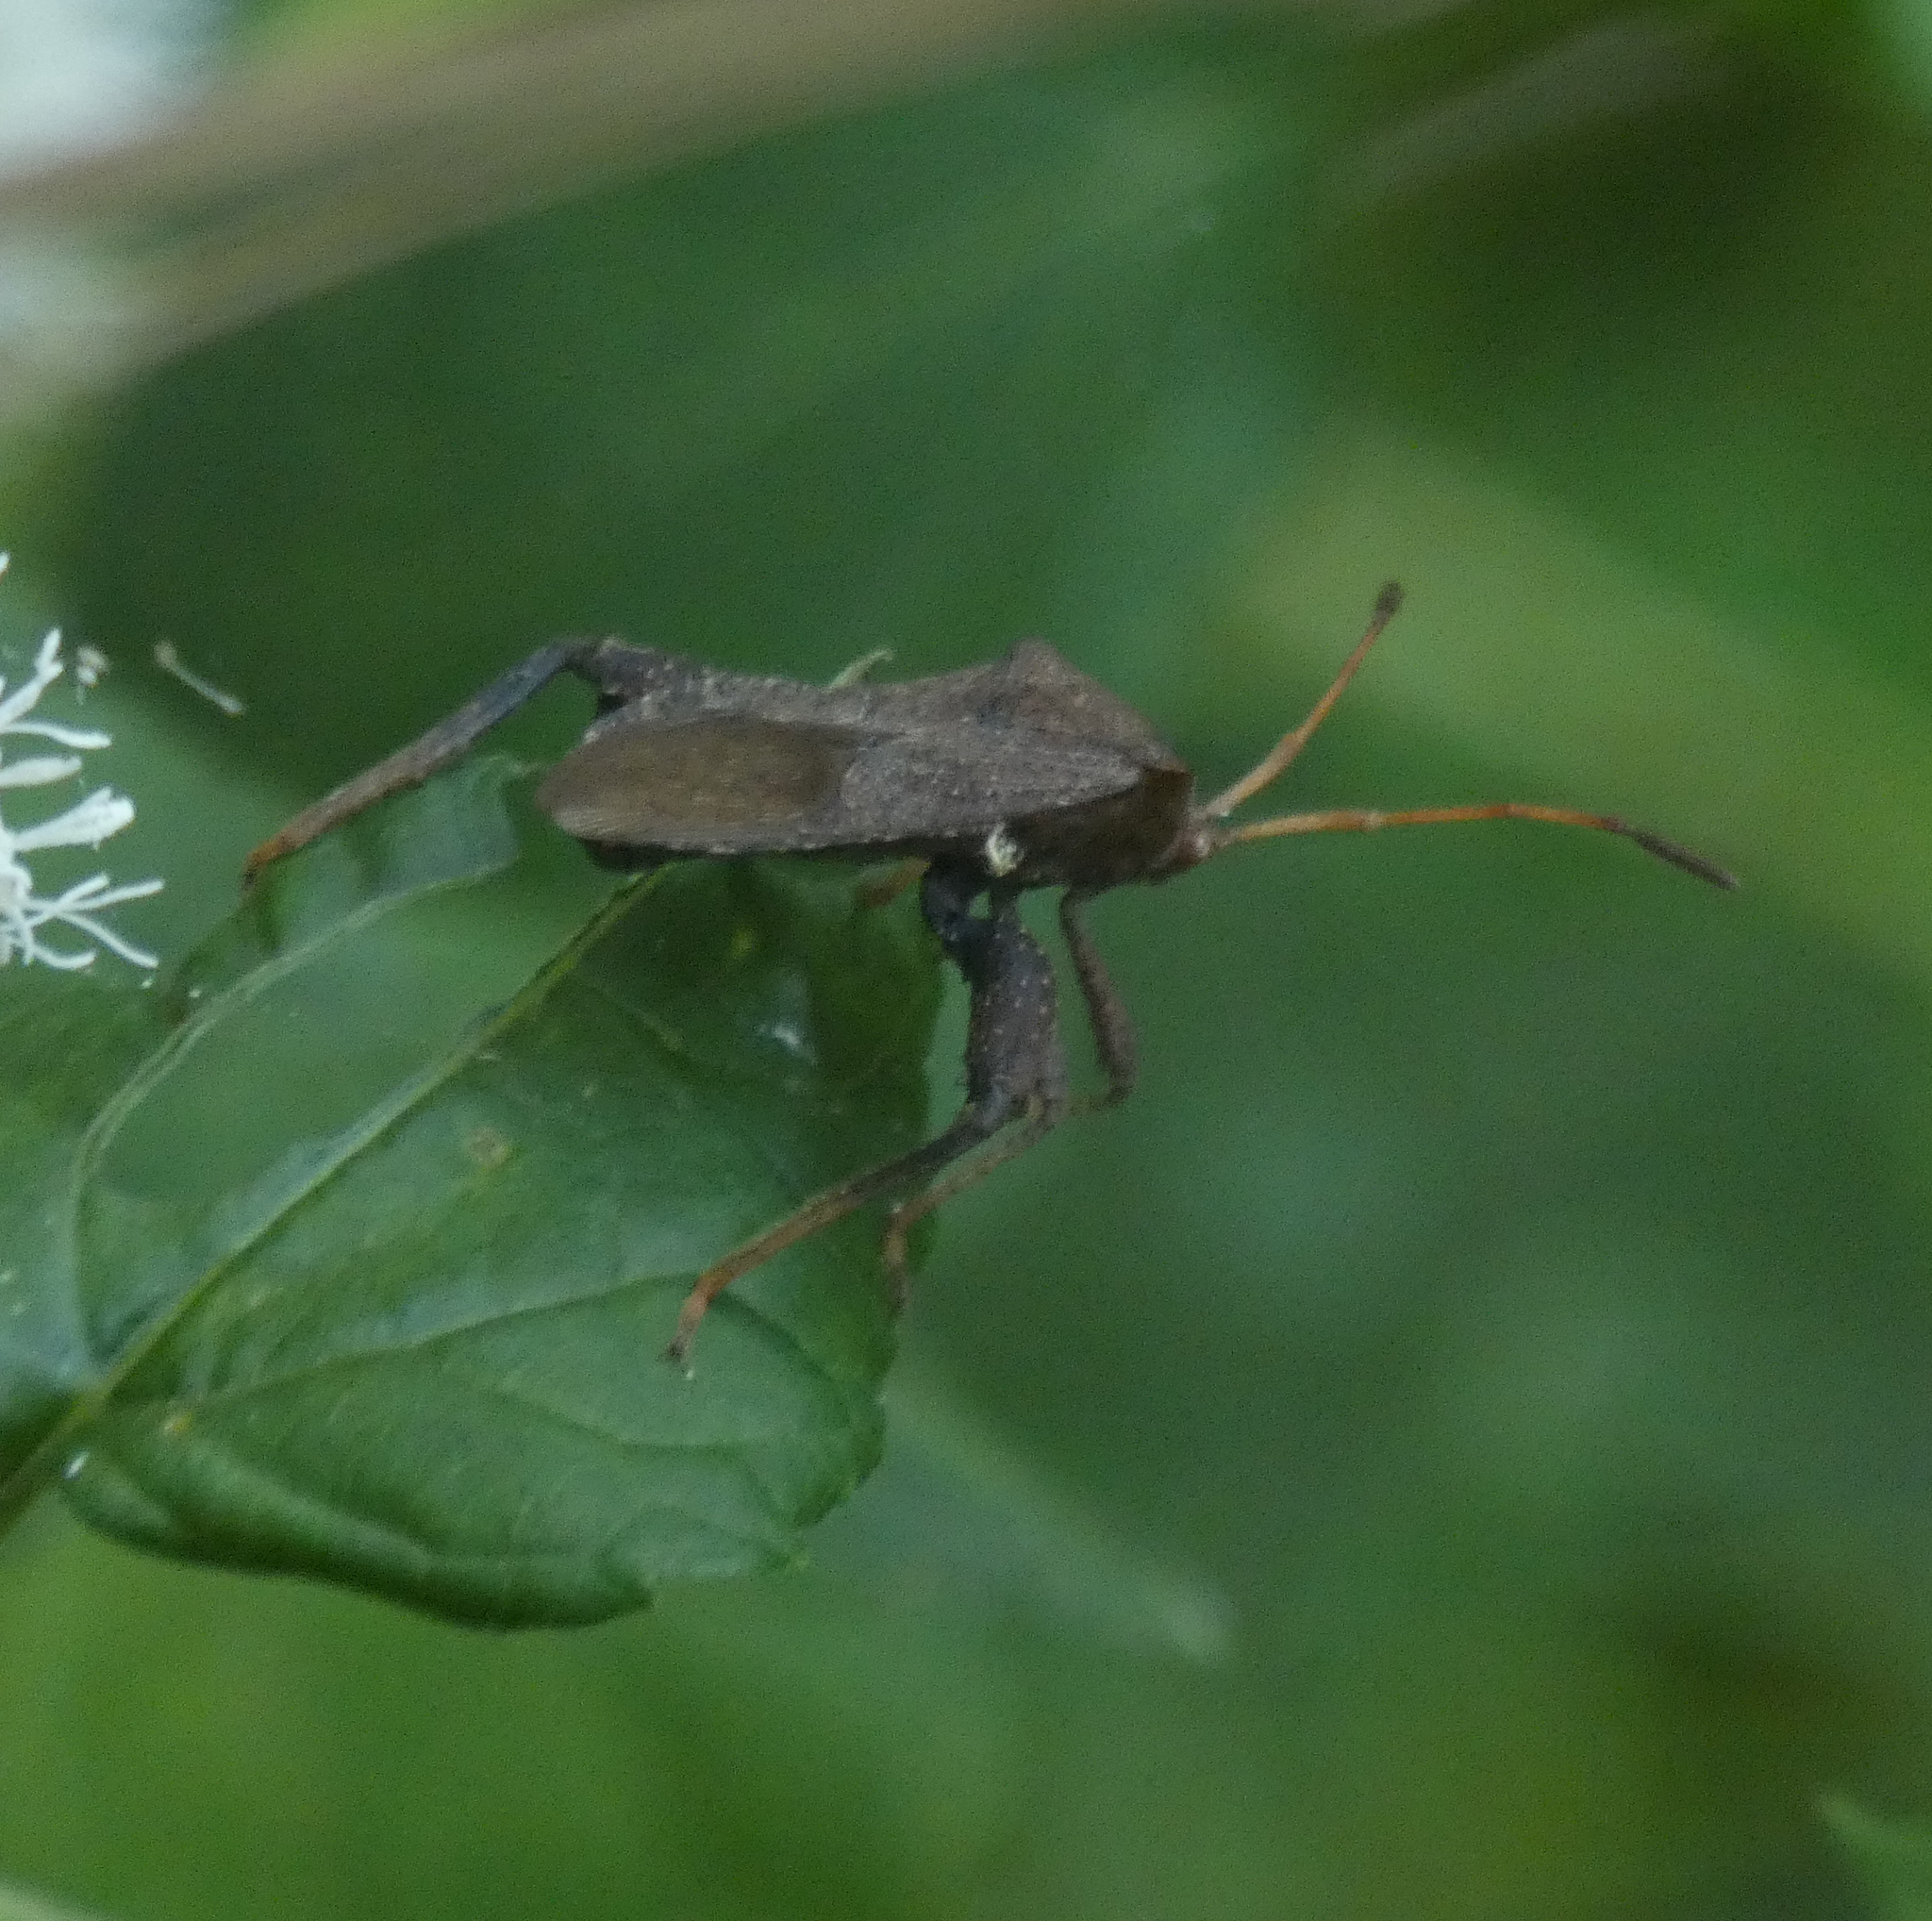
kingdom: Animalia
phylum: Arthropoda
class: Insecta
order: Hemiptera
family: Coreidae
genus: Euthochtha
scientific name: Euthochtha galeator
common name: Helmeted squash bug
